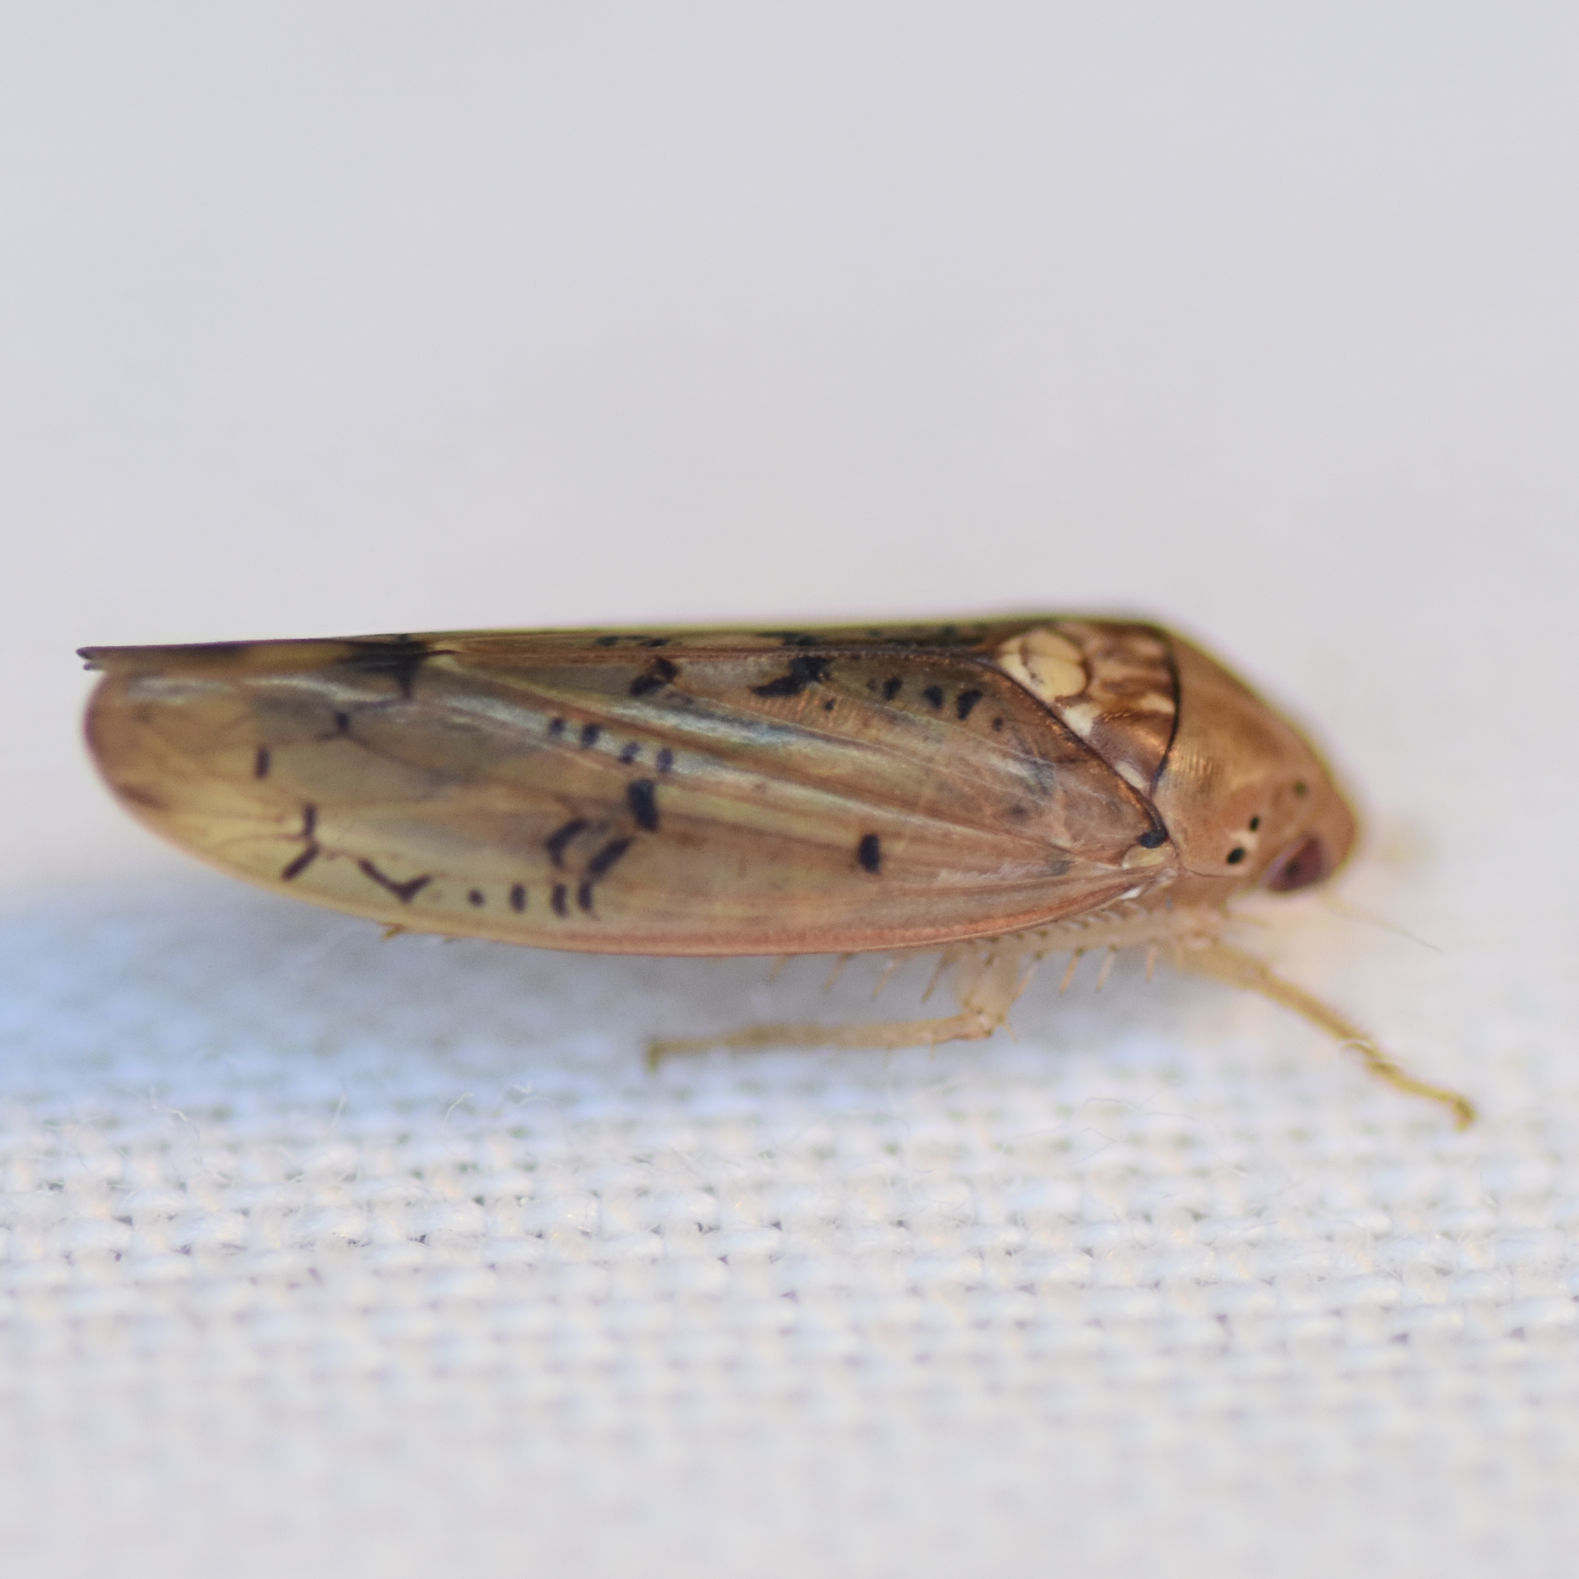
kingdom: Animalia
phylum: Arthropoda
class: Insecta
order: Hemiptera
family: Cicadellidae
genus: Ponana
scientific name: Ponana quadralaba
